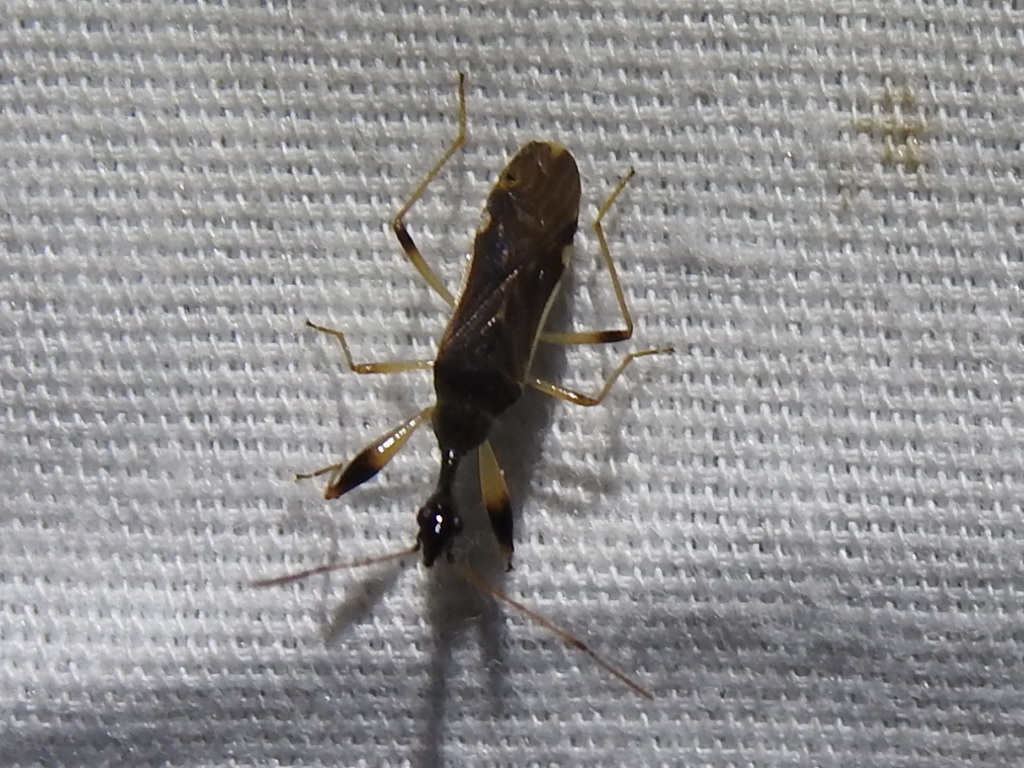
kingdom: Animalia
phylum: Arthropoda
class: Insecta
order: Hemiptera
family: Rhyparochromidae
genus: Myodocha
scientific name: Myodocha serripes
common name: Long-necked seed bug
